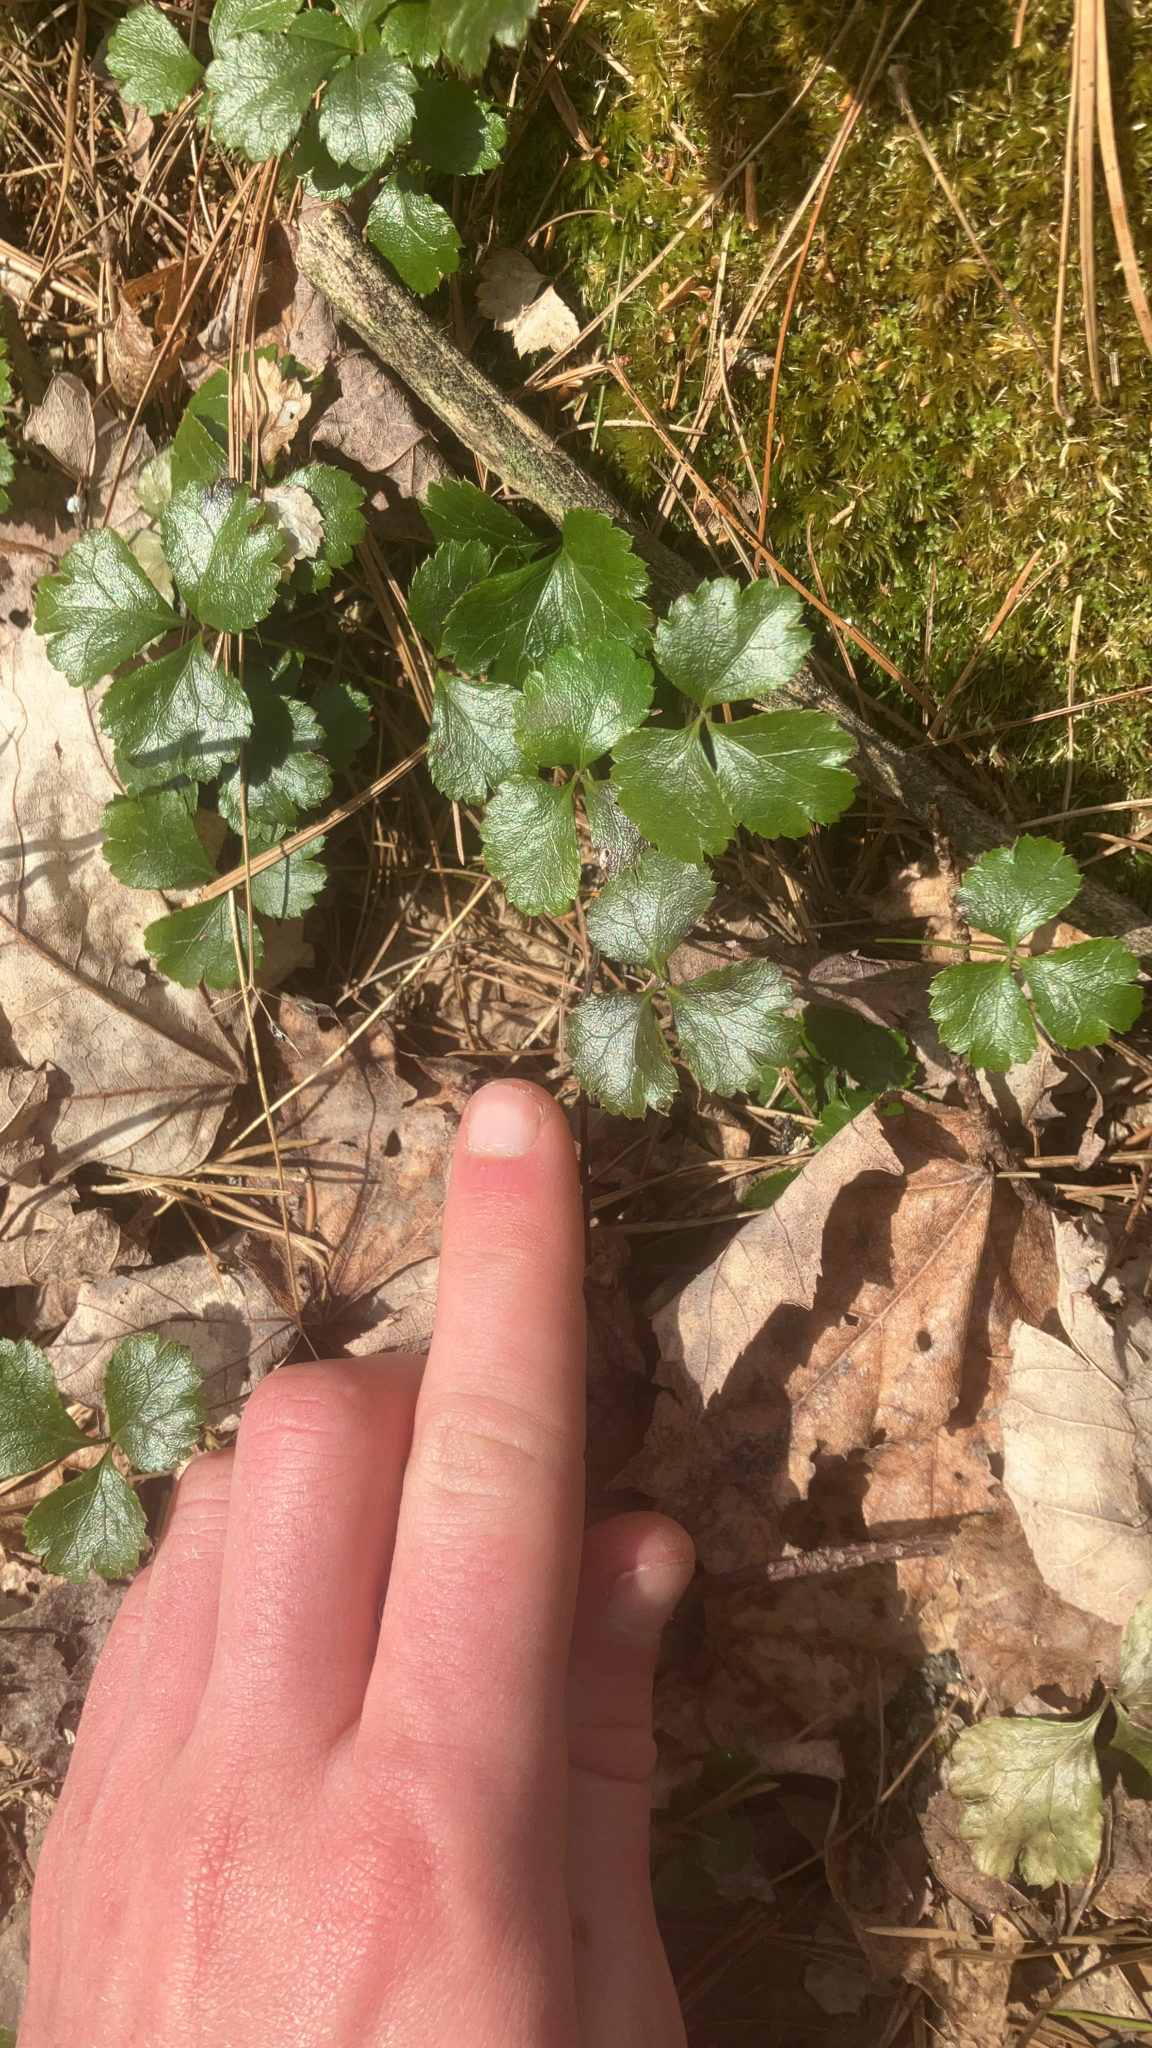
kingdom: Plantae
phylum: Tracheophyta
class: Magnoliopsida
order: Ranunculales
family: Ranunculaceae
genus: Coptis
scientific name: Coptis trifolia
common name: Canker-root
